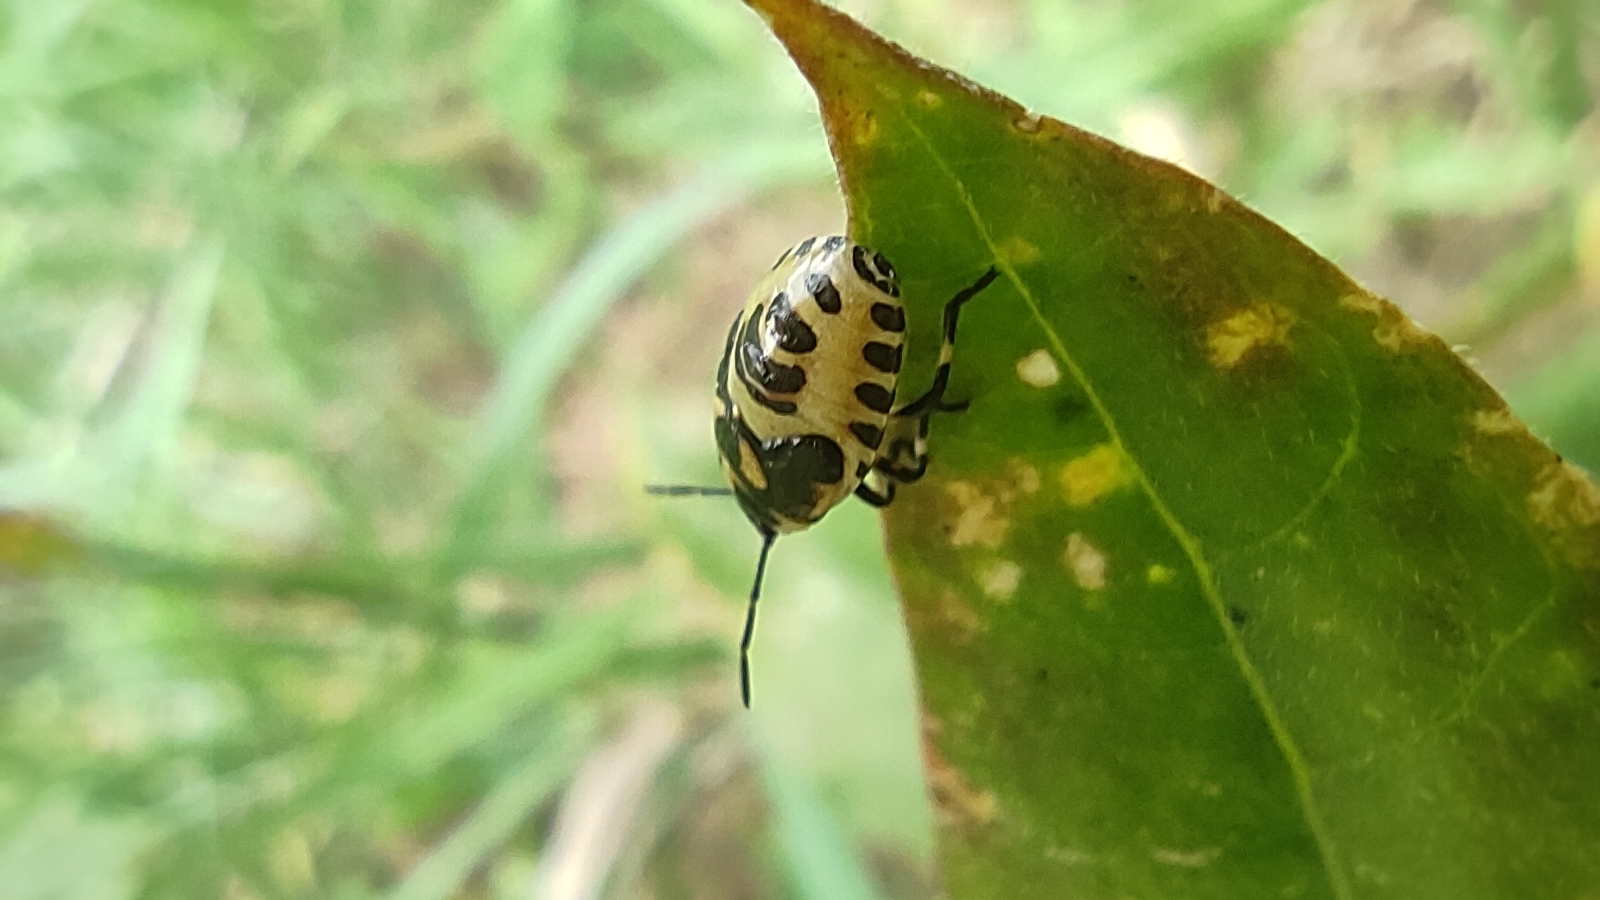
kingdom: Animalia
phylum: Arthropoda
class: Insecta
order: Hemiptera
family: Pentatomidae
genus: Eurydema
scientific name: Eurydema oleracea
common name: Cabbage bug
